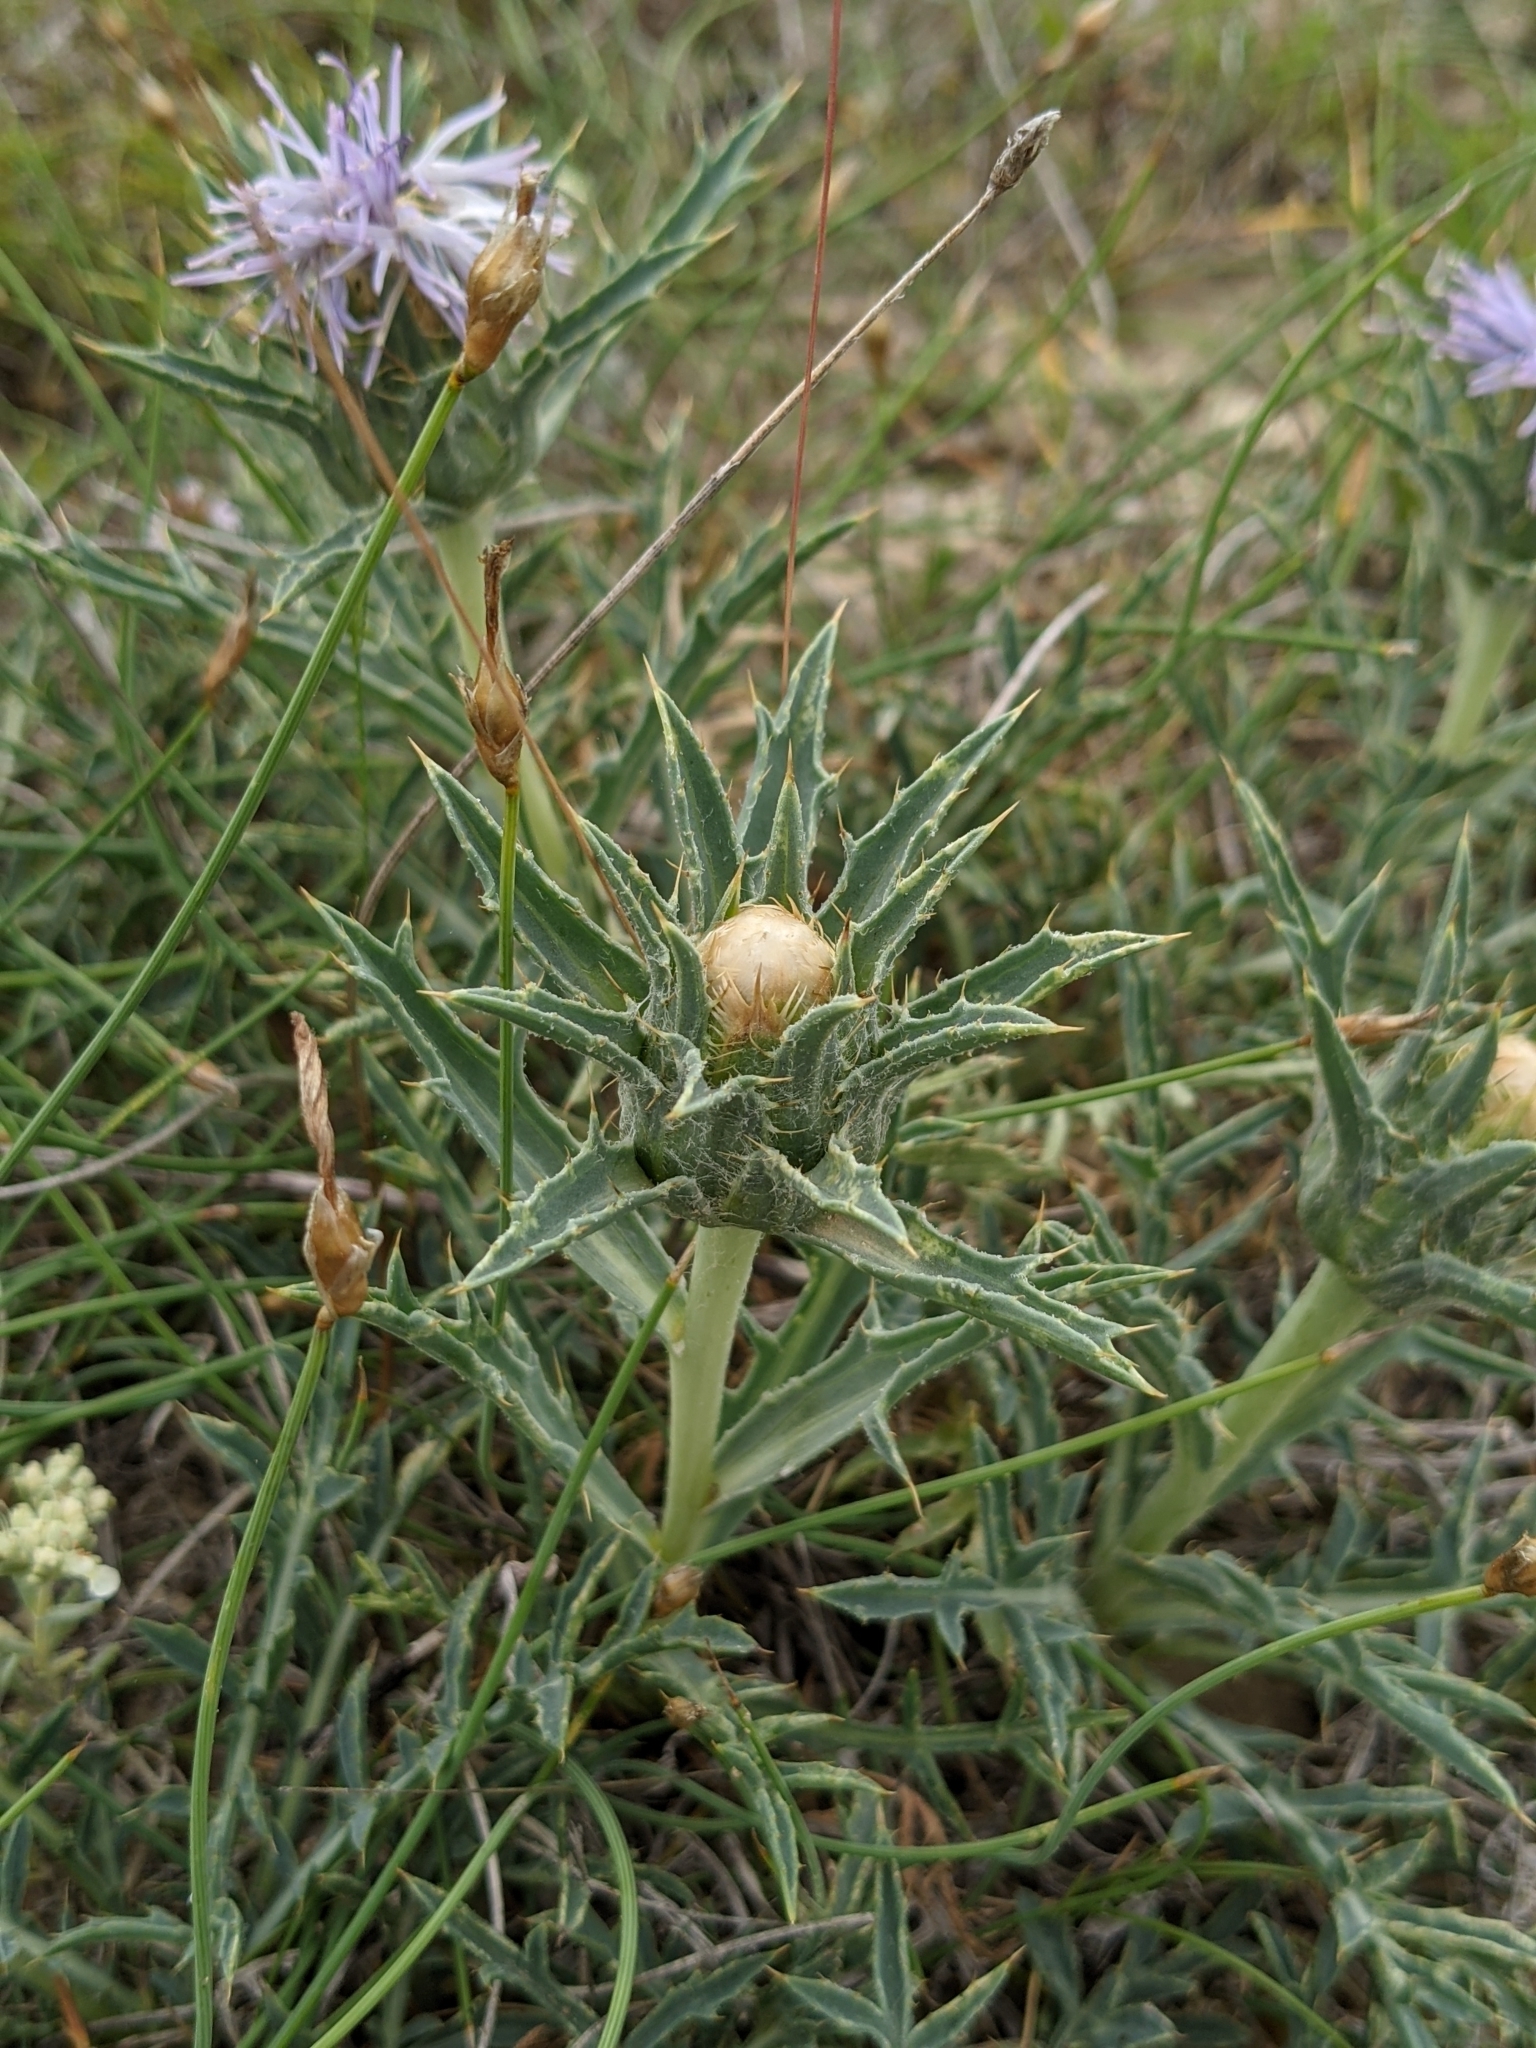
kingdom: Plantae
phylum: Tracheophyta
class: Magnoliopsida
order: Asterales
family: Asteraceae
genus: Carduncellus
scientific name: Carduncellus monspelliensium
